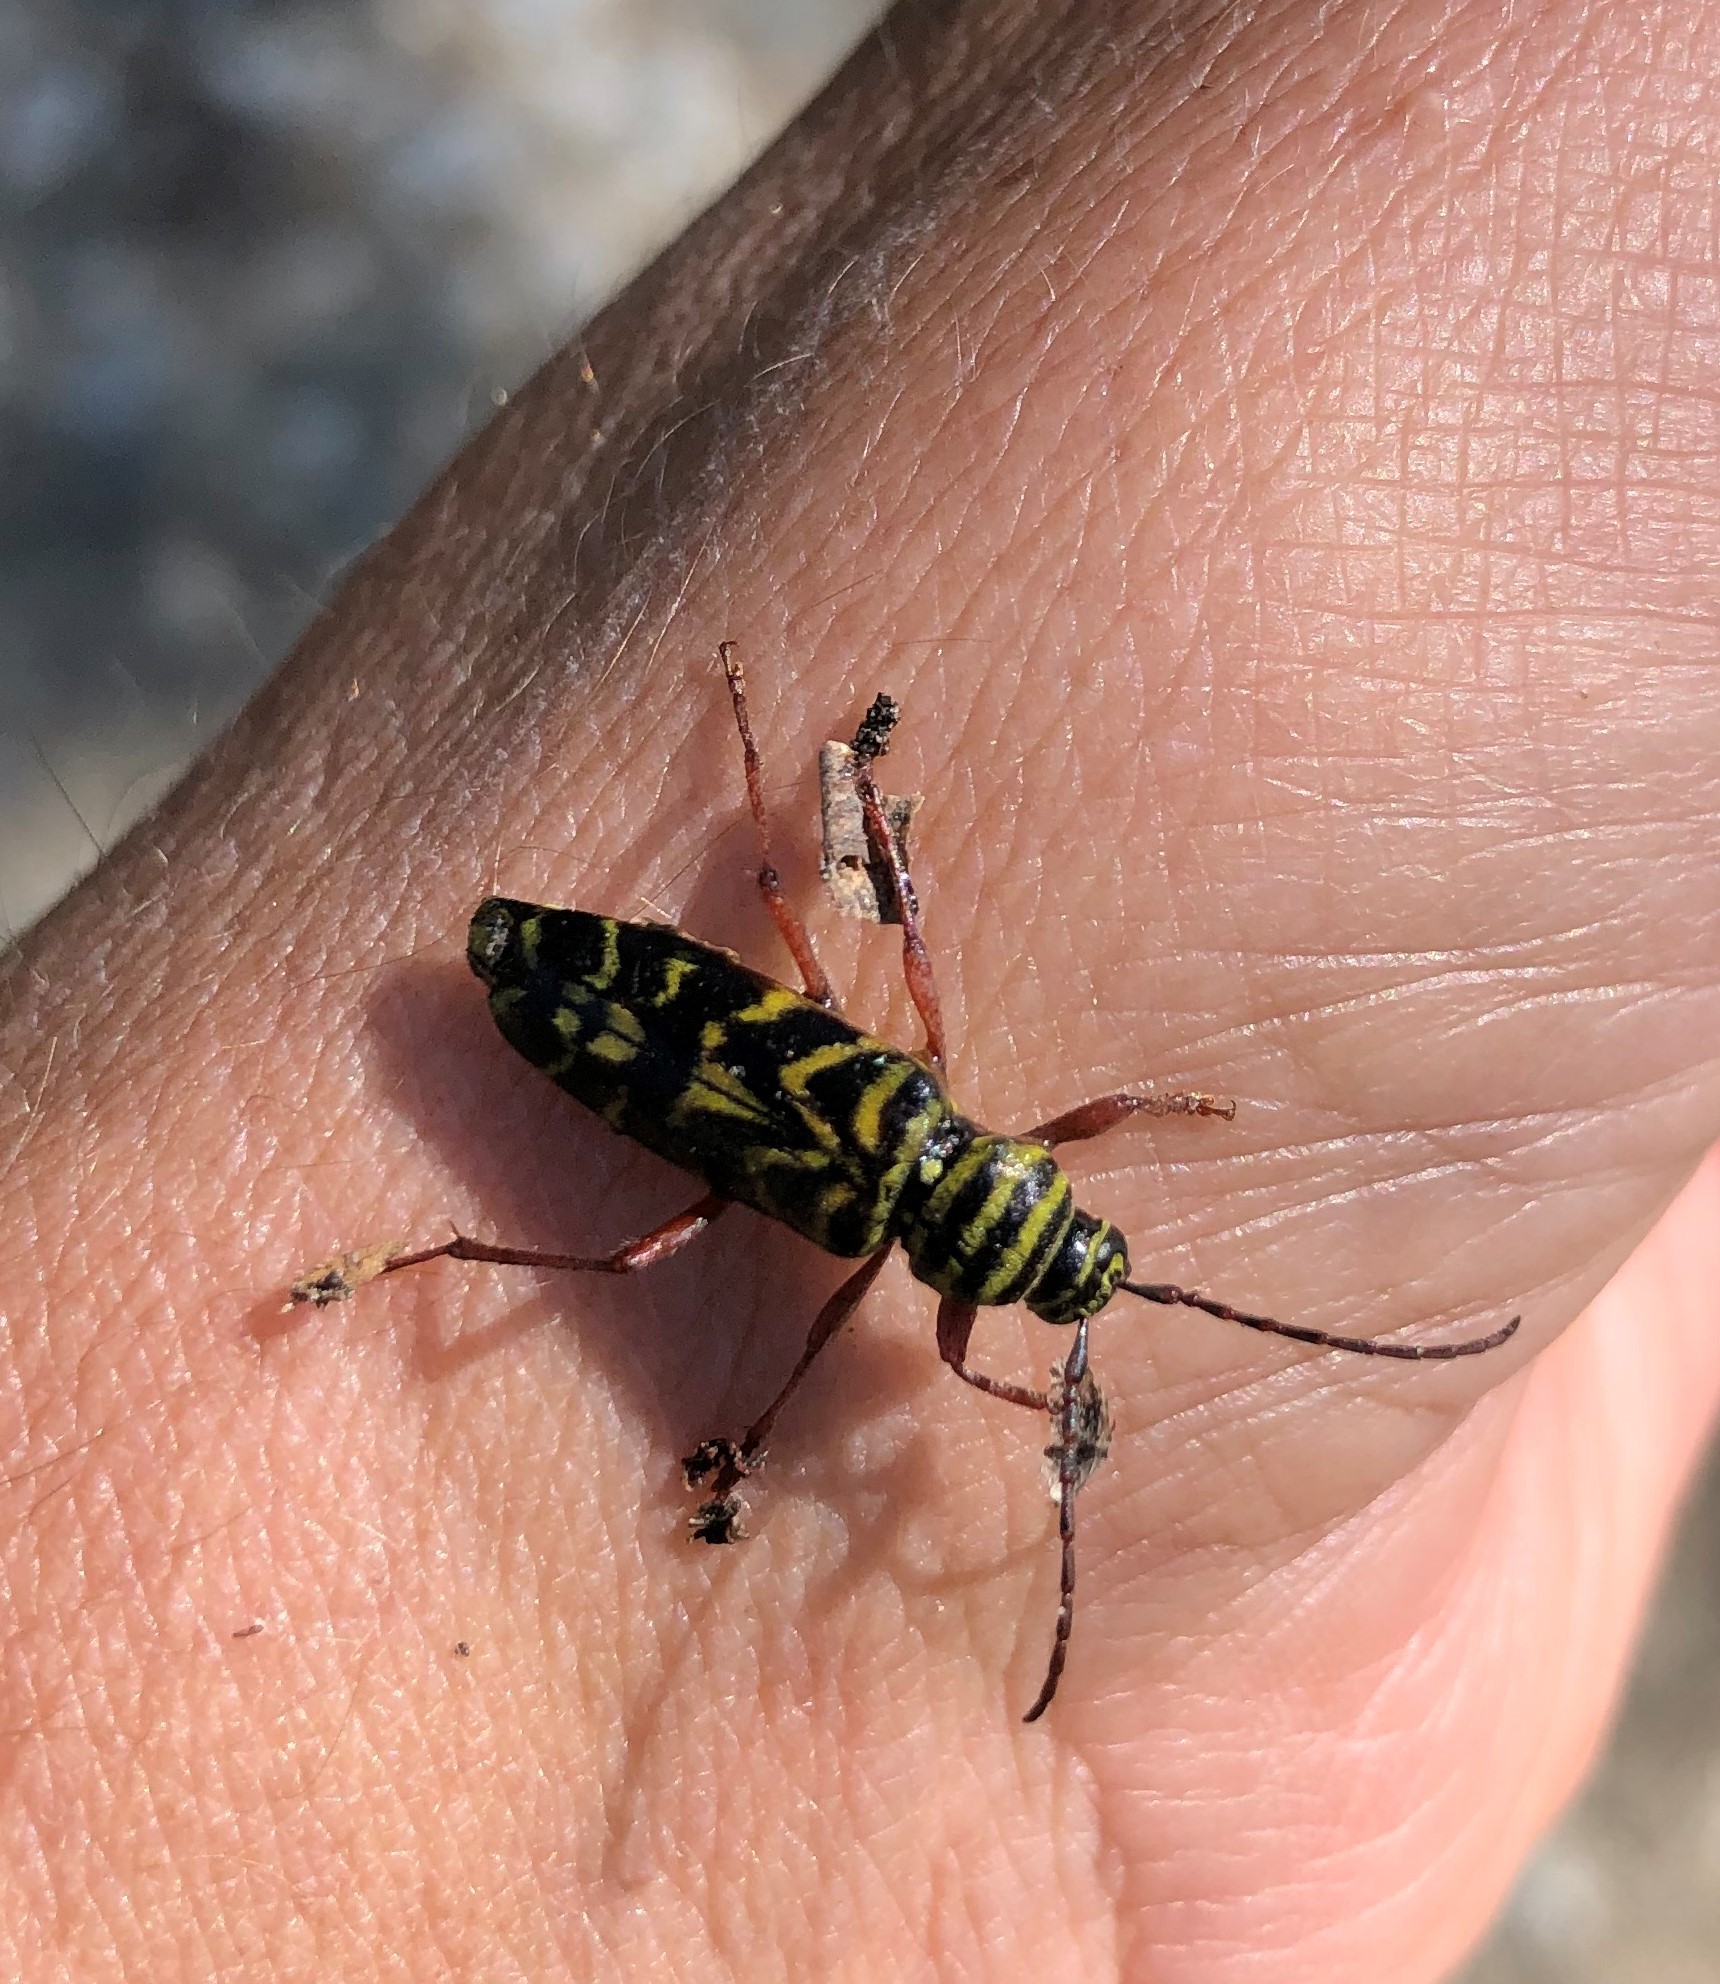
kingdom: Animalia
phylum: Arthropoda
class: Insecta
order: Coleoptera
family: Cerambycidae
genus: Megacyllene
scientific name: Megacyllene robiniae
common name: Locust borer
